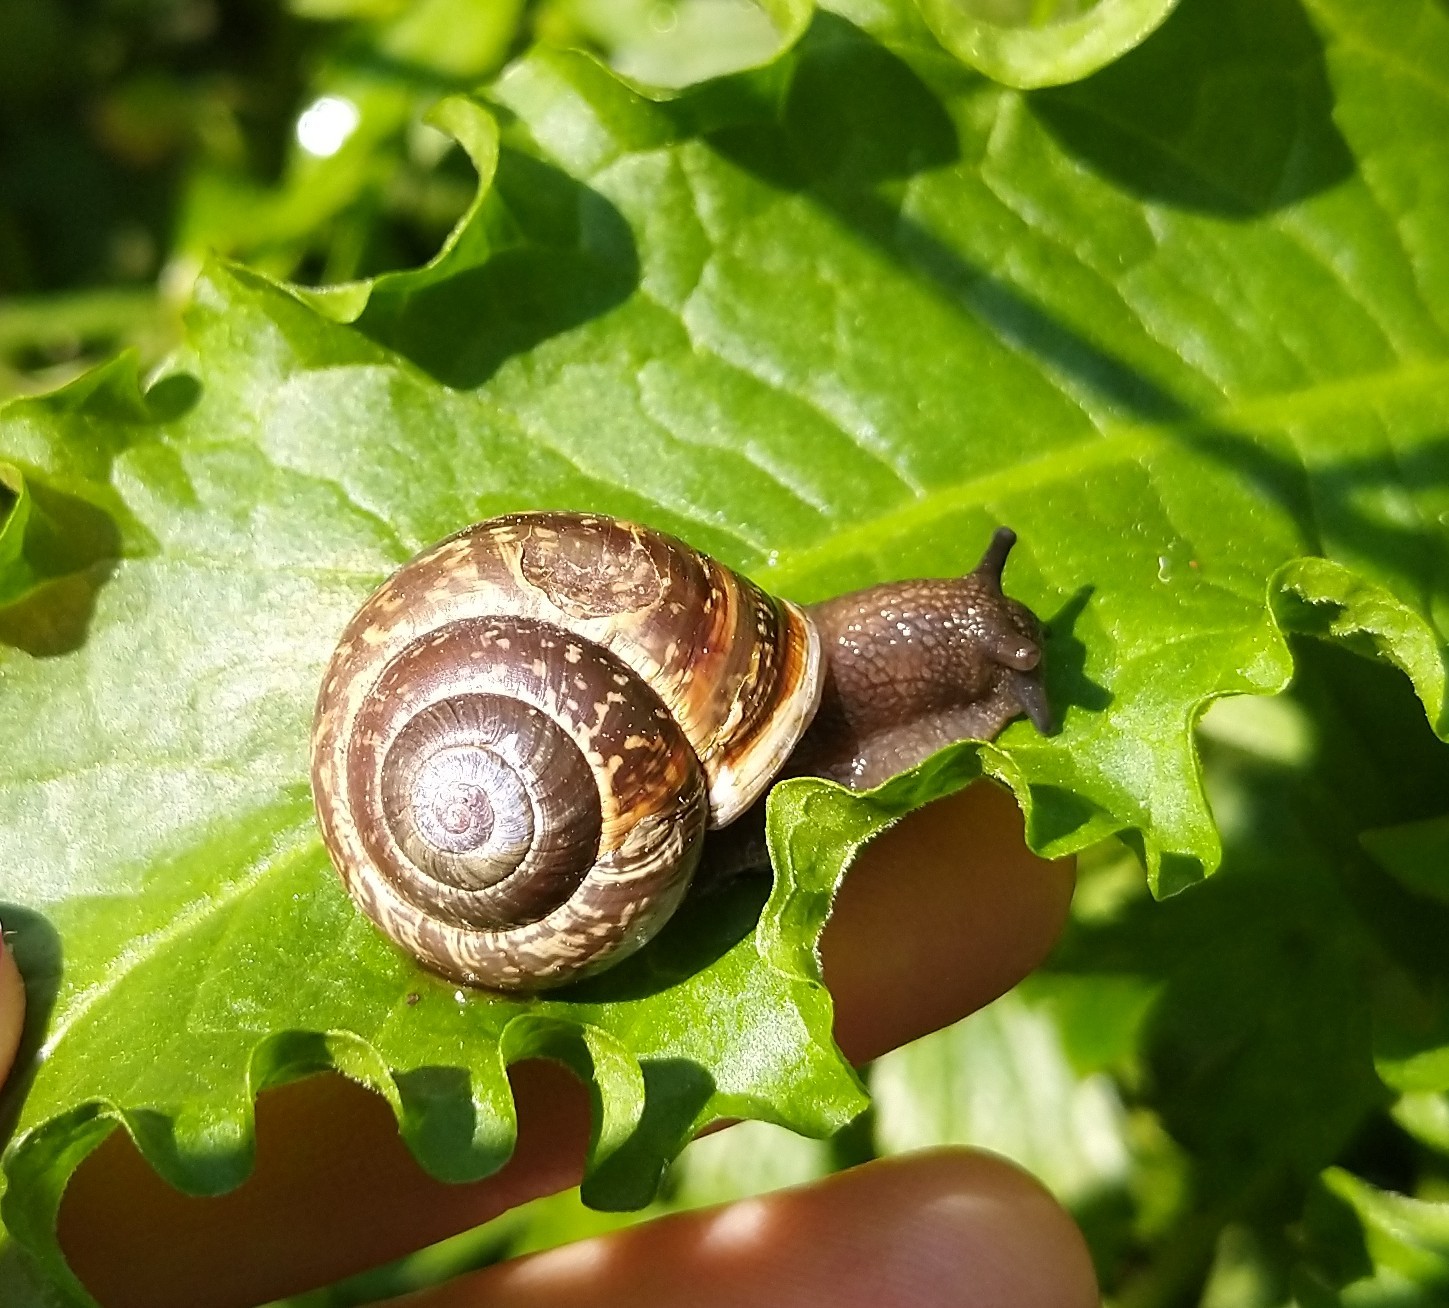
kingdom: Animalia
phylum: Mollusca
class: Gastropoda
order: Stylommatophora
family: Helicidae
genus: Arianta
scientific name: Arianta arbustorum
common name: Copse snail
